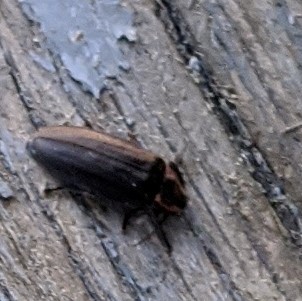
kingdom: Animalia
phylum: Arthropoda
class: Insecta
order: Coleoptera
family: Lampyridae
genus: Photinus
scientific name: Photinus corrusca
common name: Winter firefly
